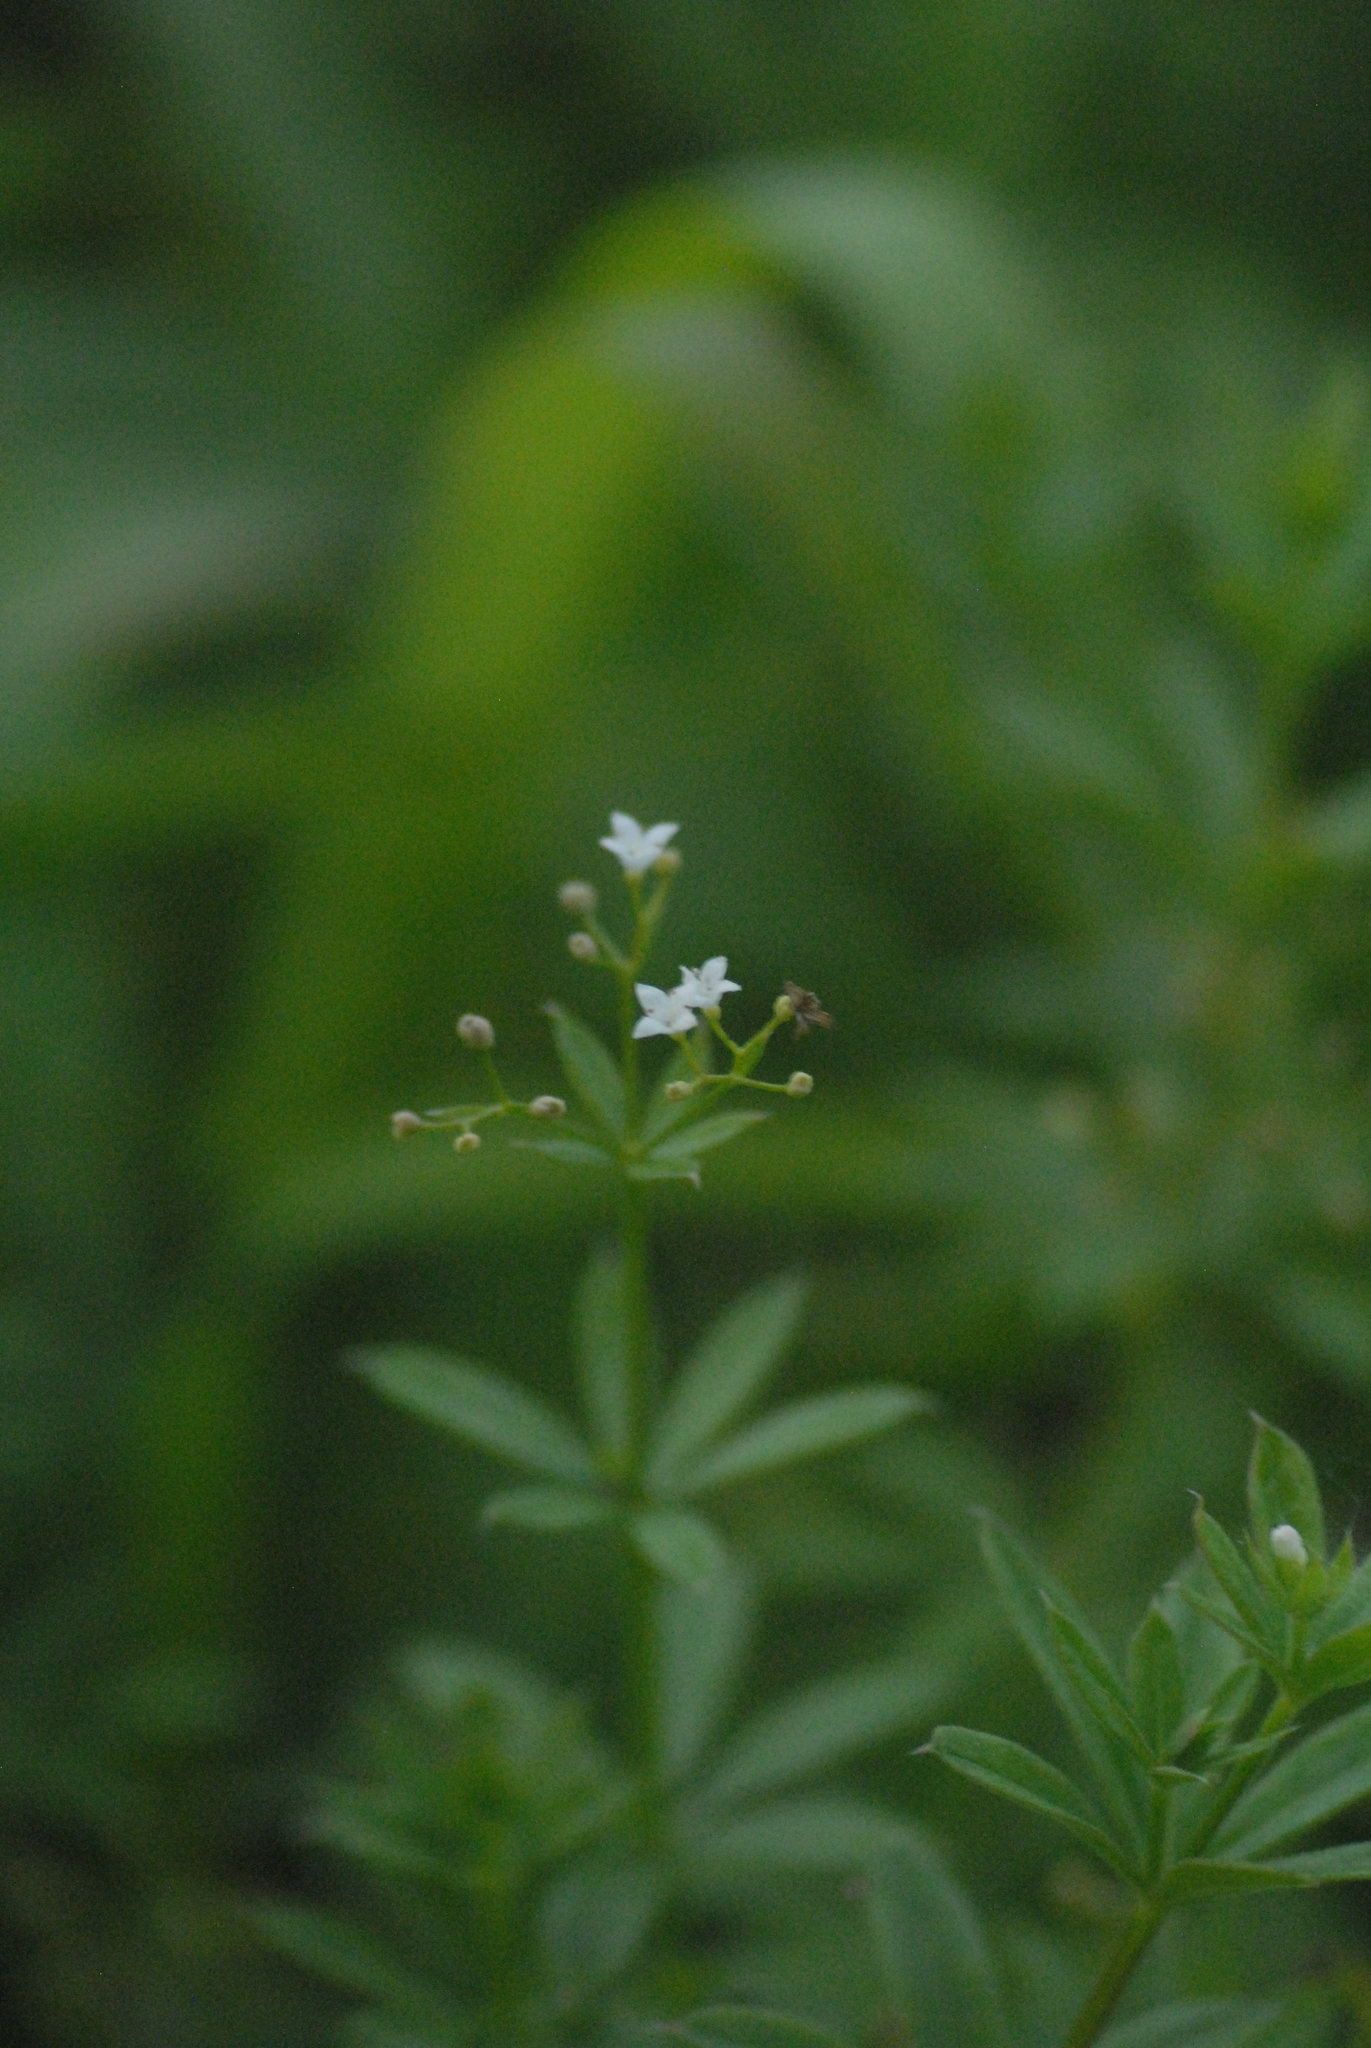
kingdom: Plantae
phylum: Tracheophyta
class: Magnoliopsida
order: Gentianales
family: Rubiaceae
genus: Galium
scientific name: Galium rivale
